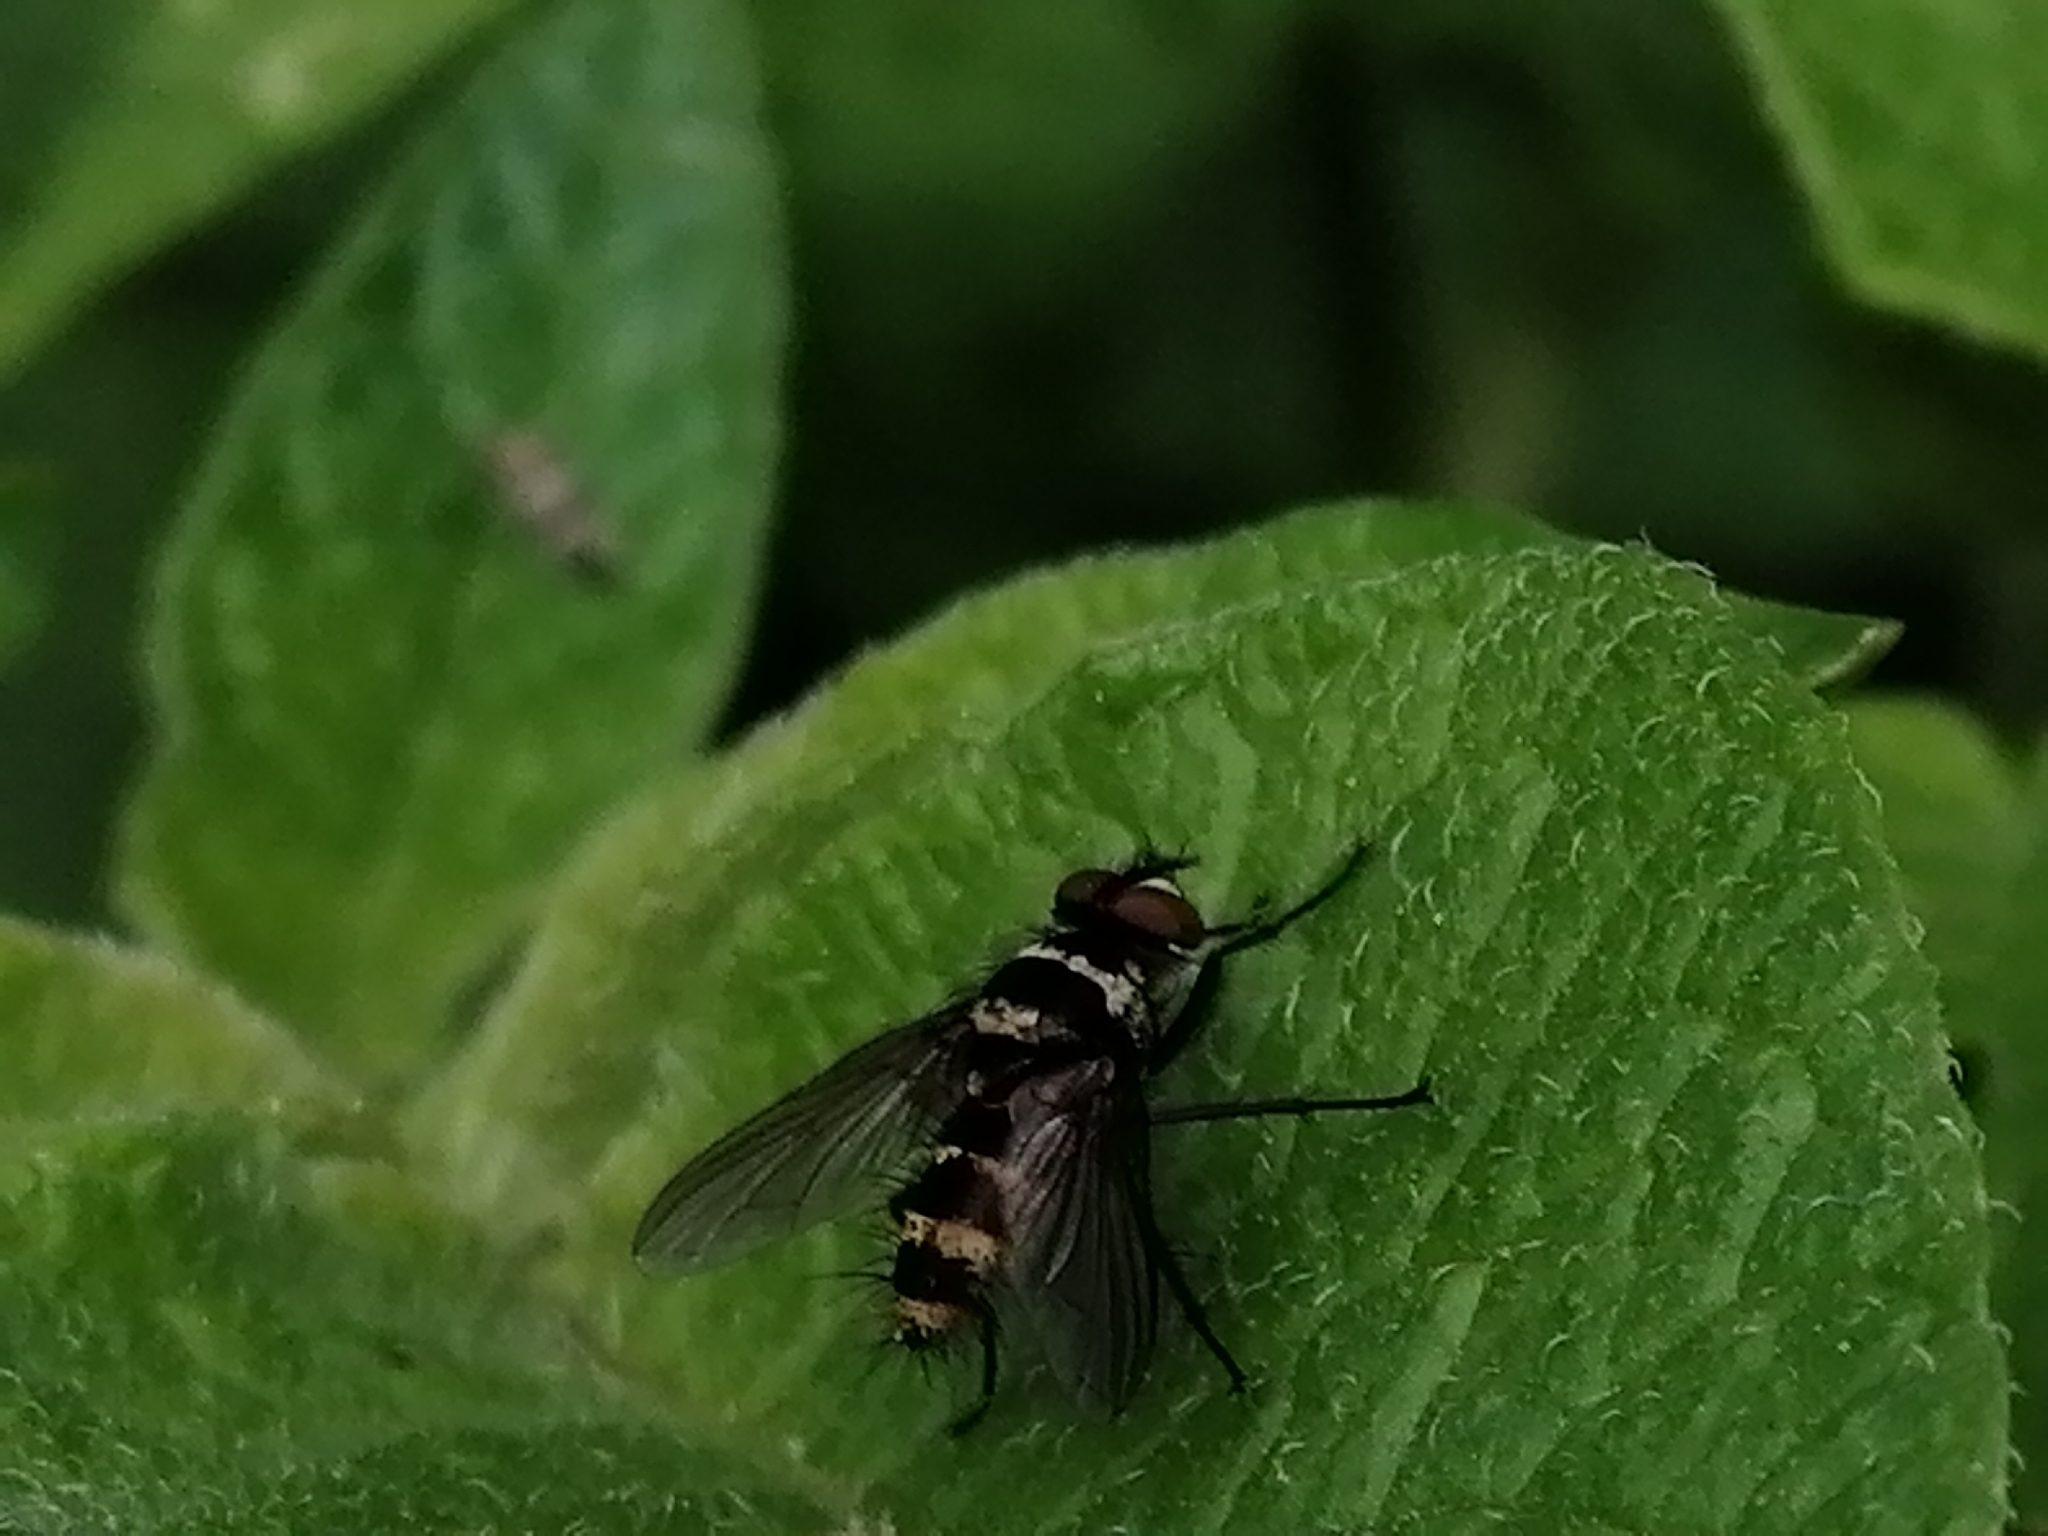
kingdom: Animalia
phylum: Arthropoda
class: Insecta
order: Diptera
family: Tachinidae
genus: Trigonospila
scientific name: Trigonospila brevifacies
